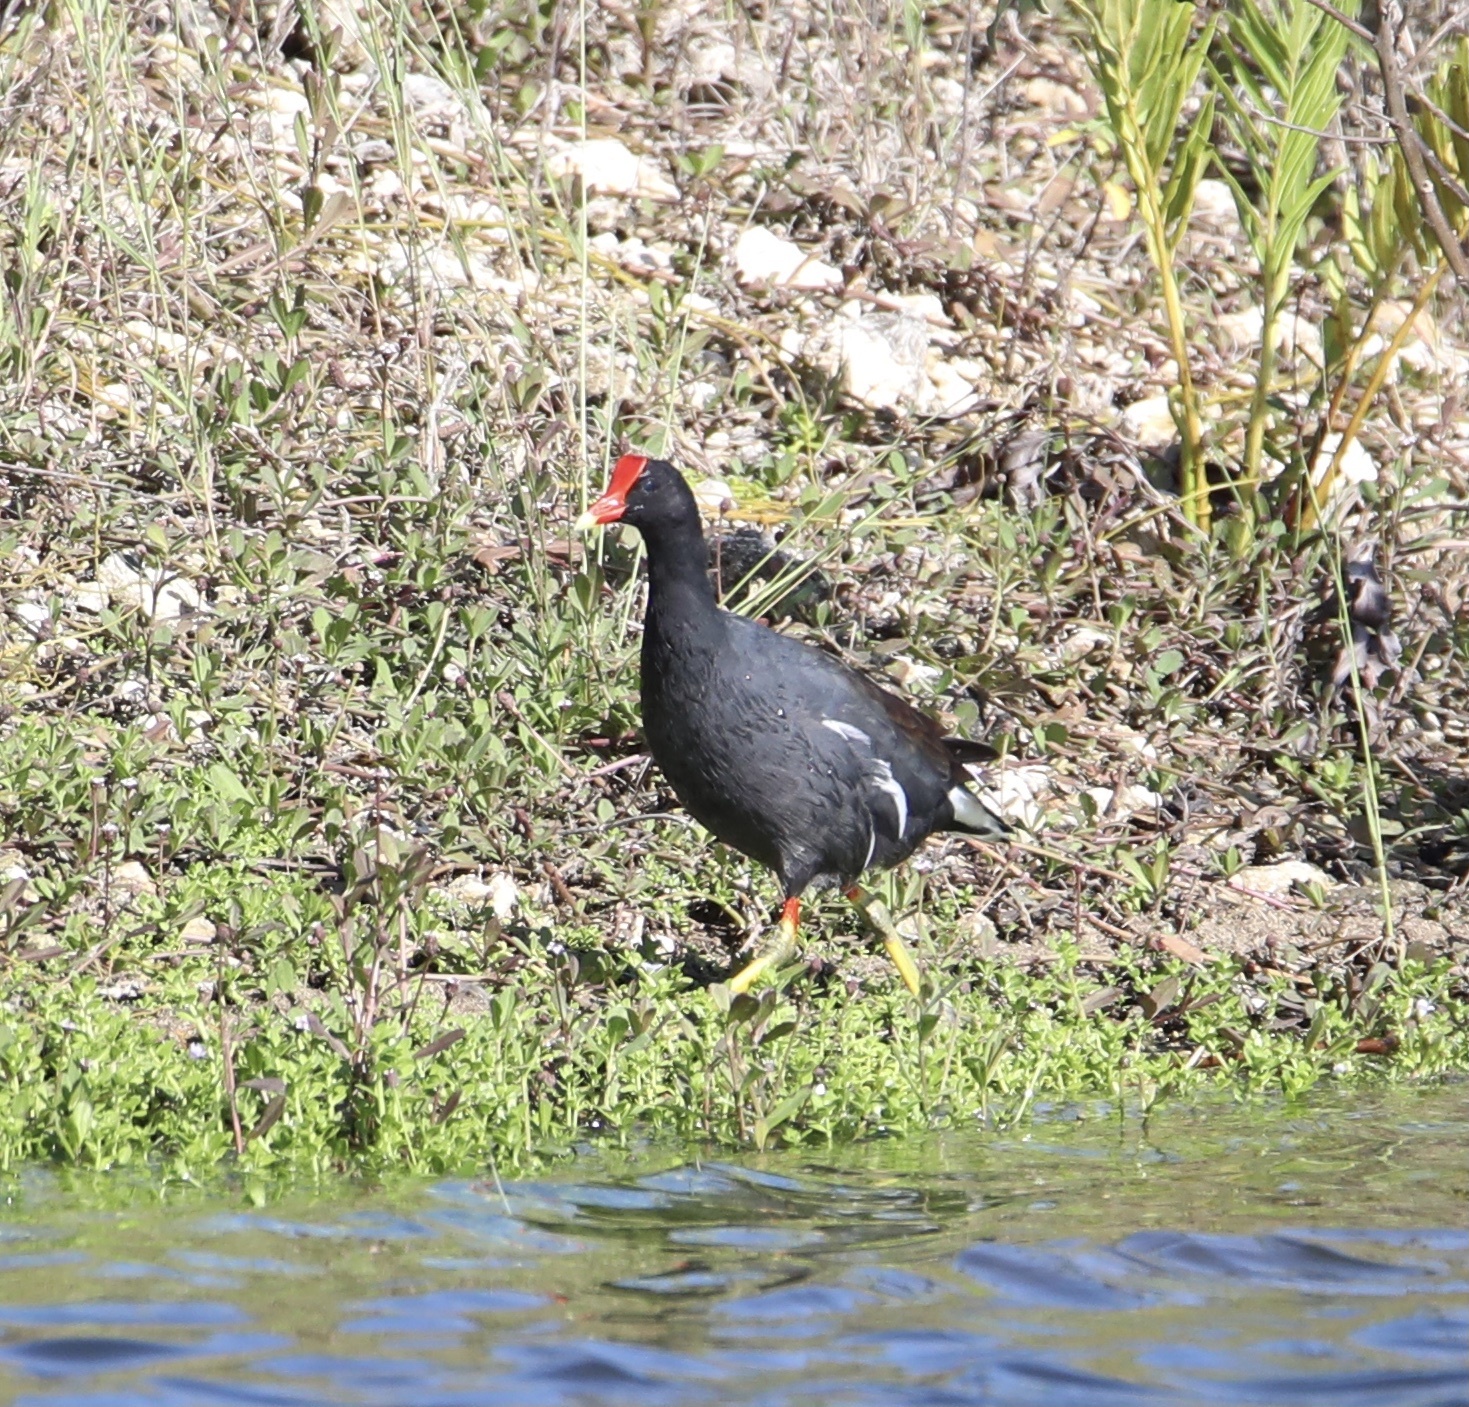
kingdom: Animalia
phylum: Chordata
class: Aves
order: Gruiformes
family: Rallidae
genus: Gallinula
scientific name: Gallinula chloropus
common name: Common moorhen
